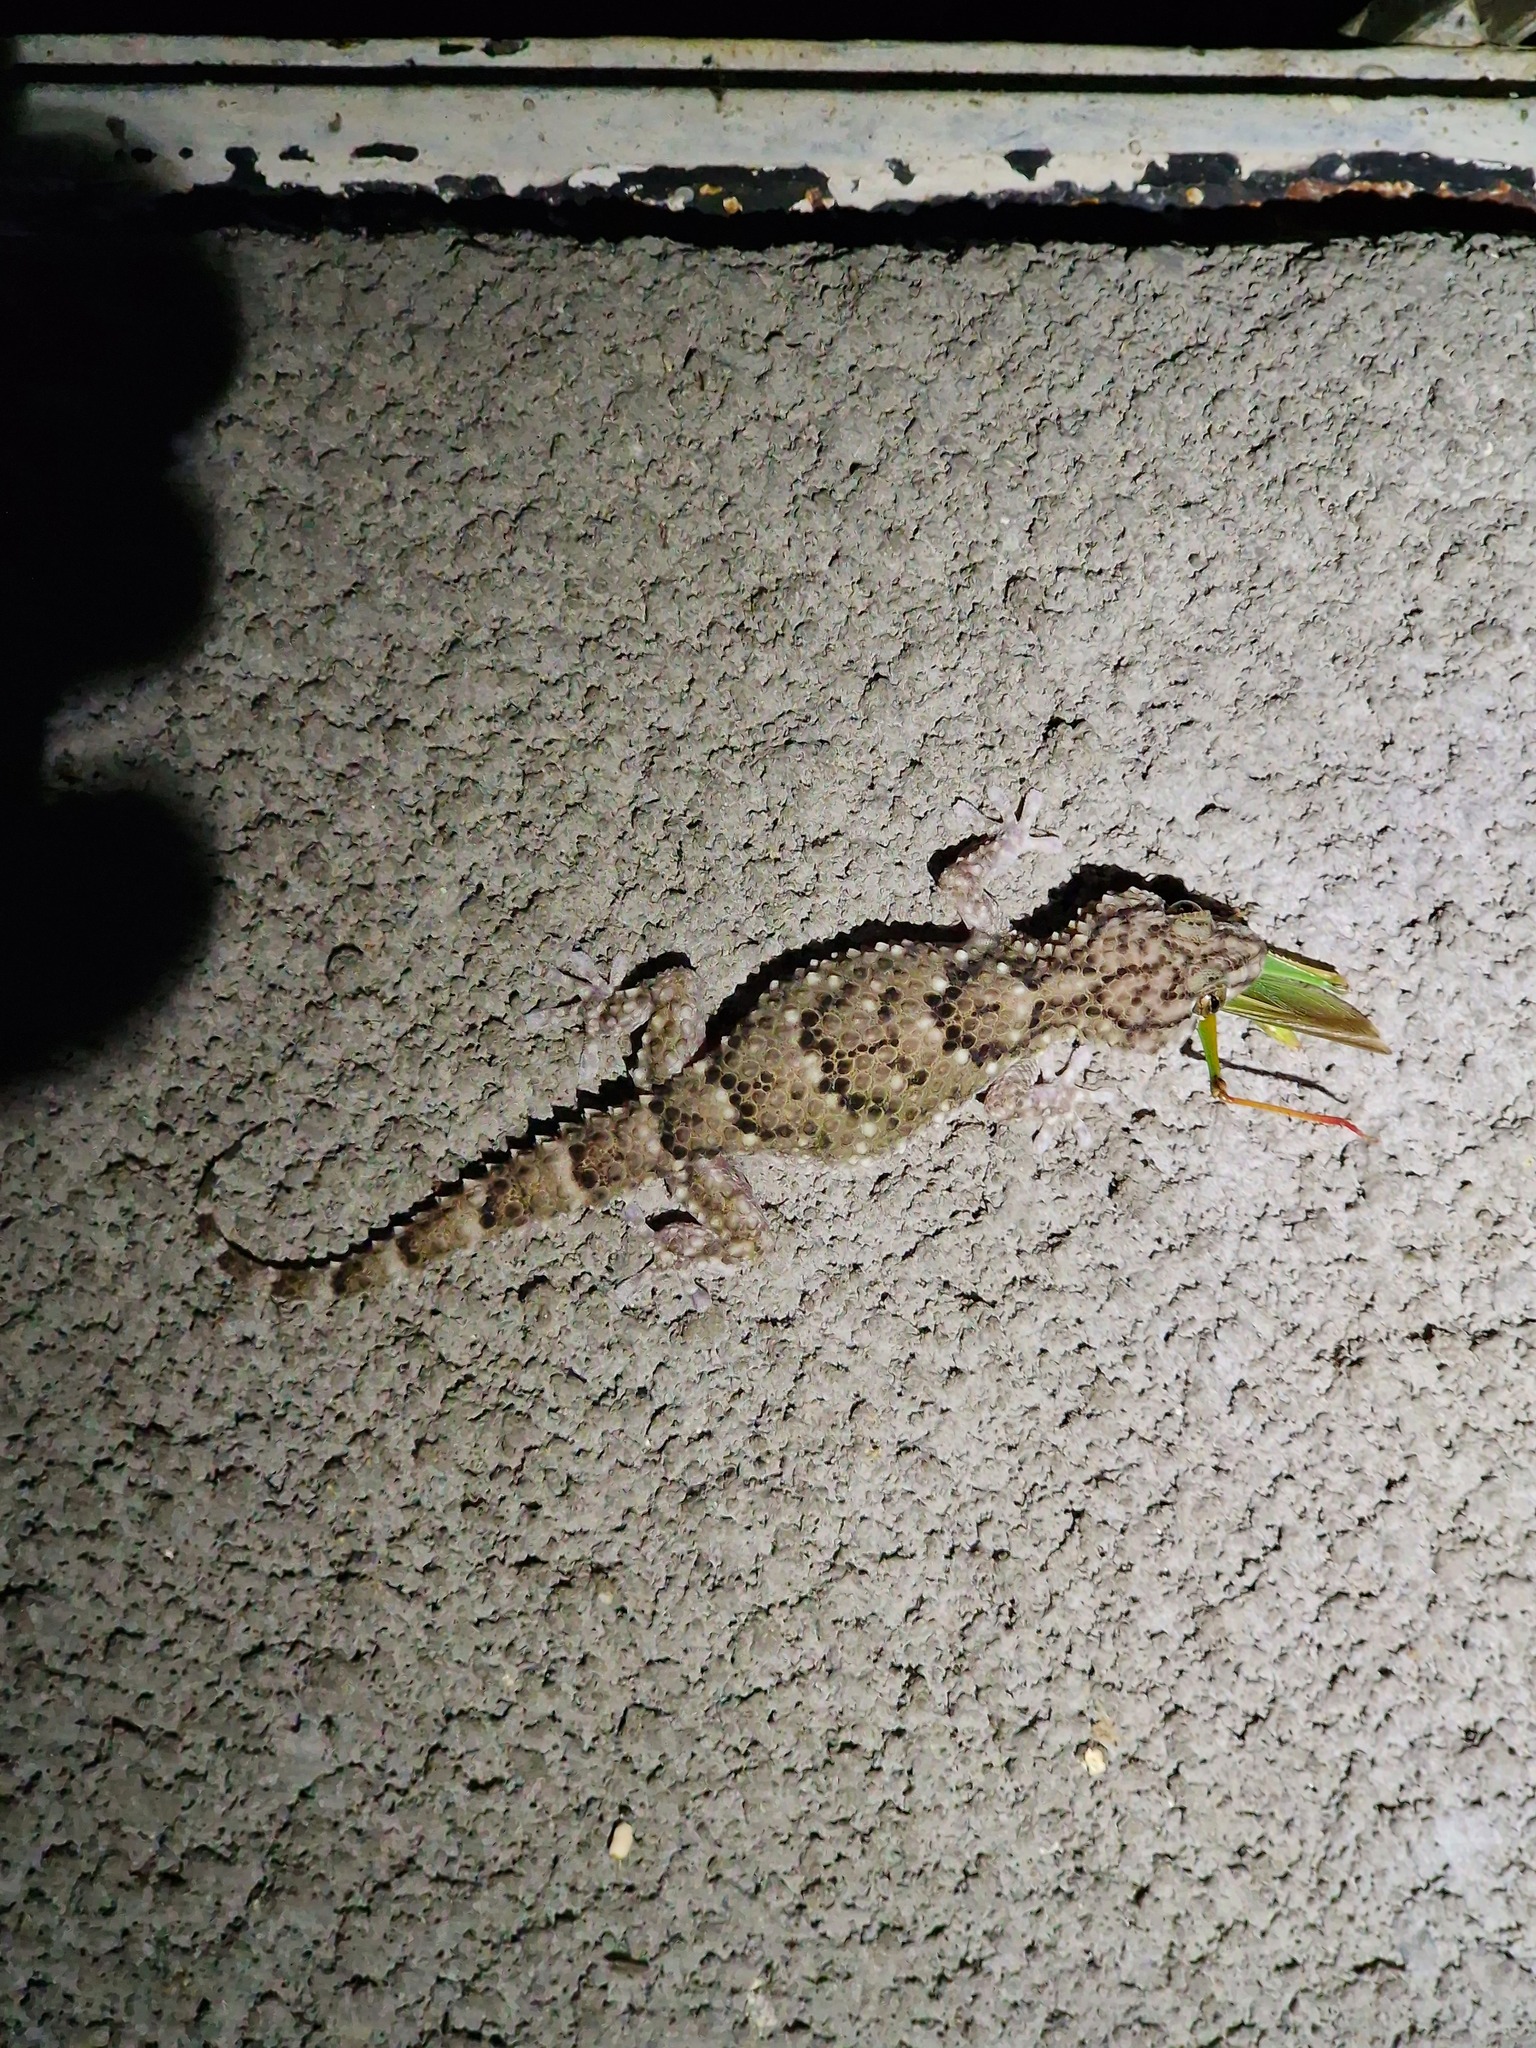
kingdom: Animalia
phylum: Chordata
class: Squamata
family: Gekkonidae
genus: Chondrodactylus
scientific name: Chondrodactylus laevigatus
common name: Fischer's thick-toed gecko
